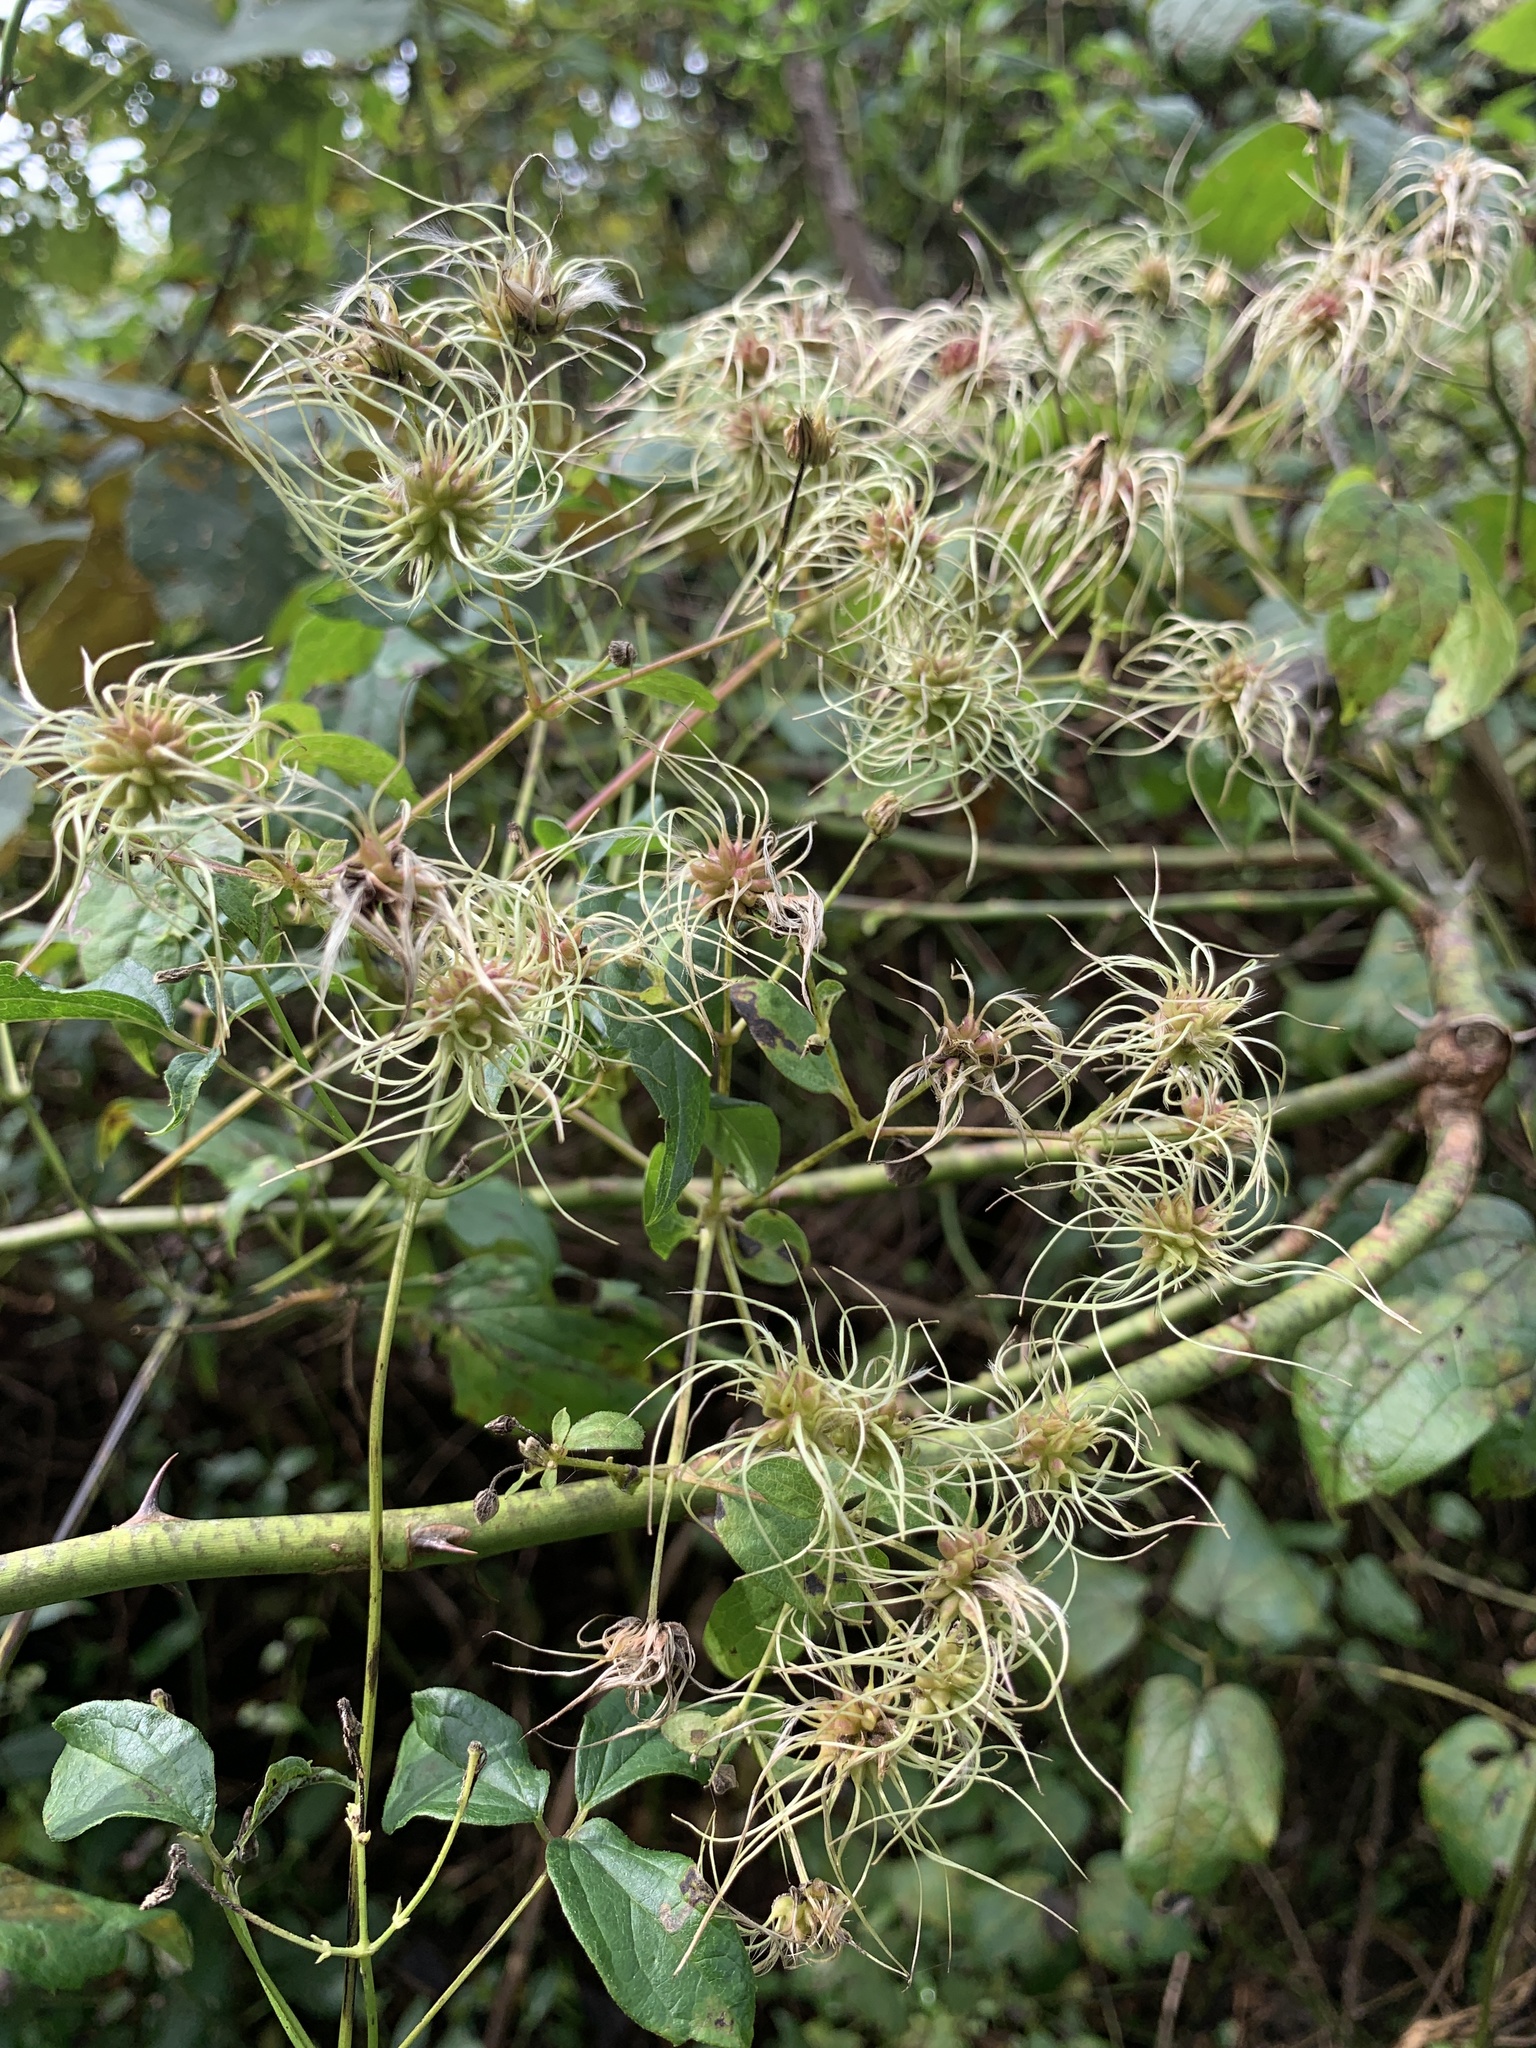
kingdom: Plantae
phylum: Tracheophyta
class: Magnoliopsida
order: Ranunculales
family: Ranunculaceae
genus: Clematis
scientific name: Clematis virginiana
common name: Virgin's-bower
